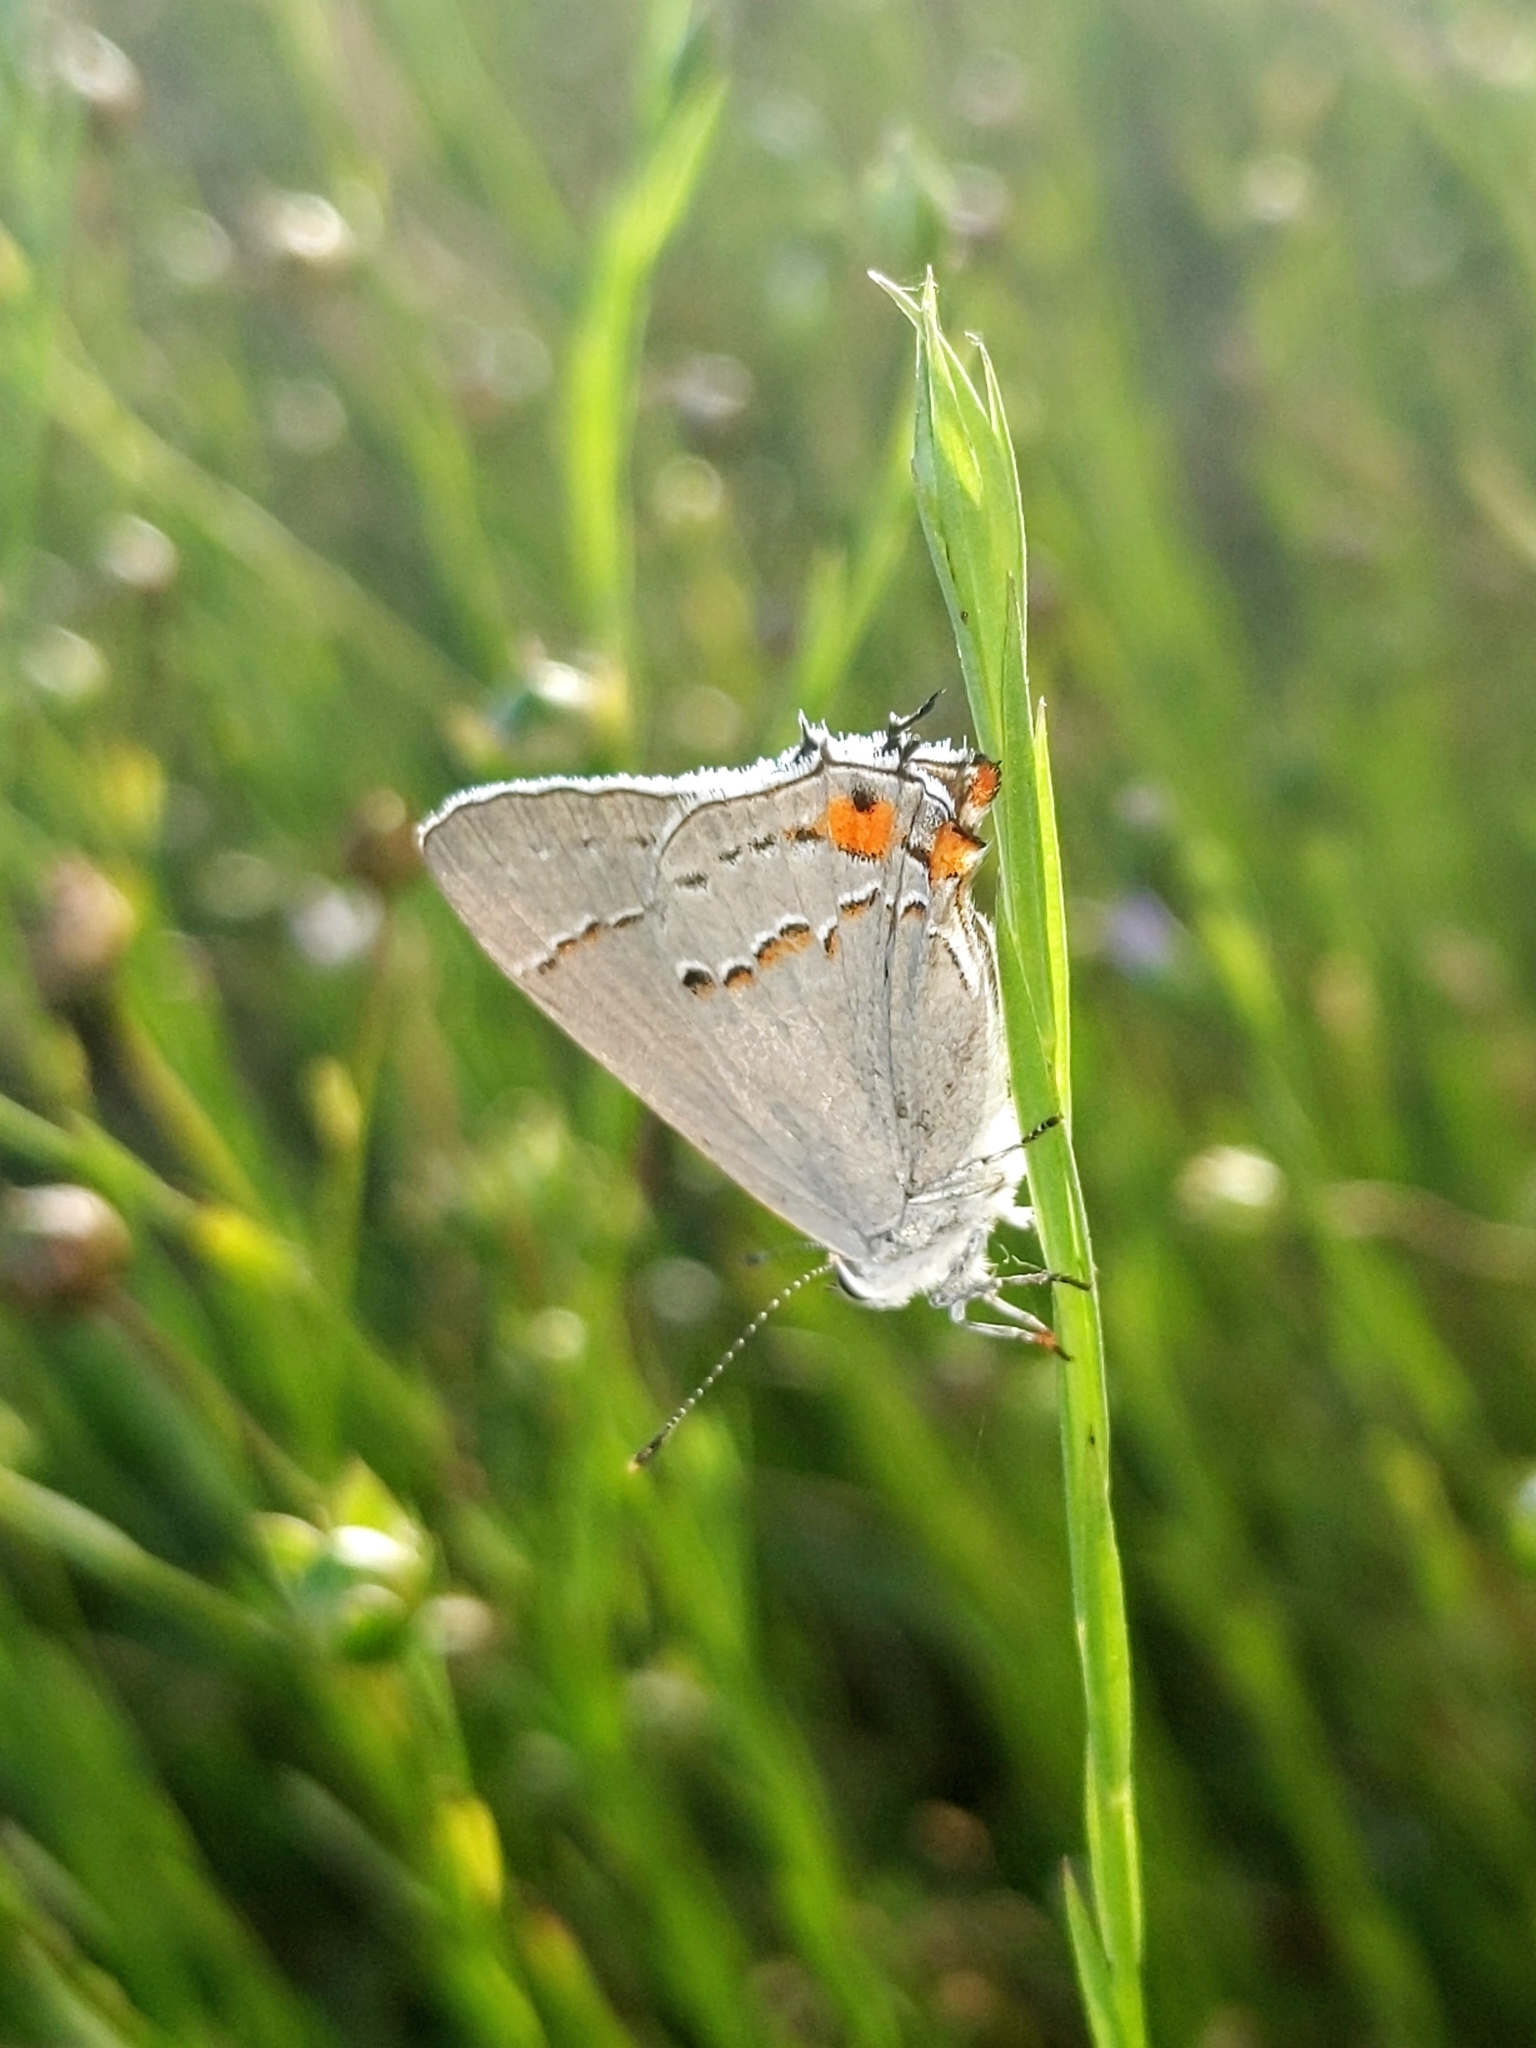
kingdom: Animalia
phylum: Arthropoda
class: Insecta
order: Lepidoptera
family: Lycaenidae
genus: Strymon
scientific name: Strymon melinus
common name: Gray hairstreak
